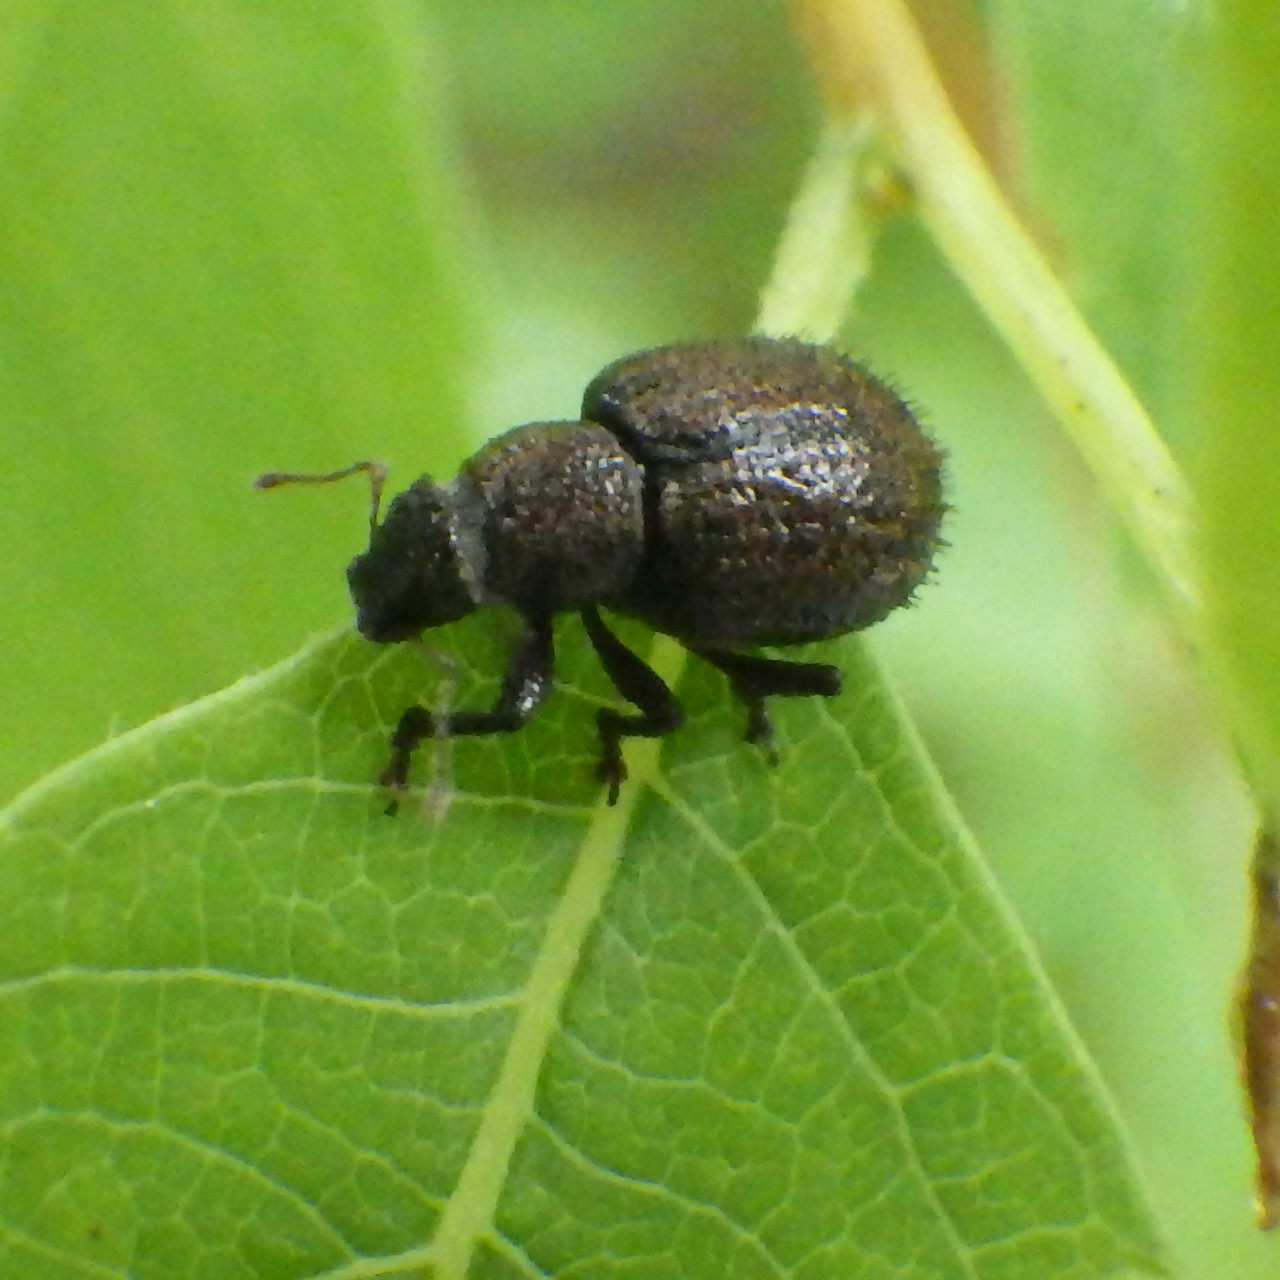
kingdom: Animalia
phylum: Arthropoda
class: Insecta
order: Coleoptera
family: Curculionidae
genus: Strophosoma
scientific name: Strophosoma melanogrammum
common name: Weevil
